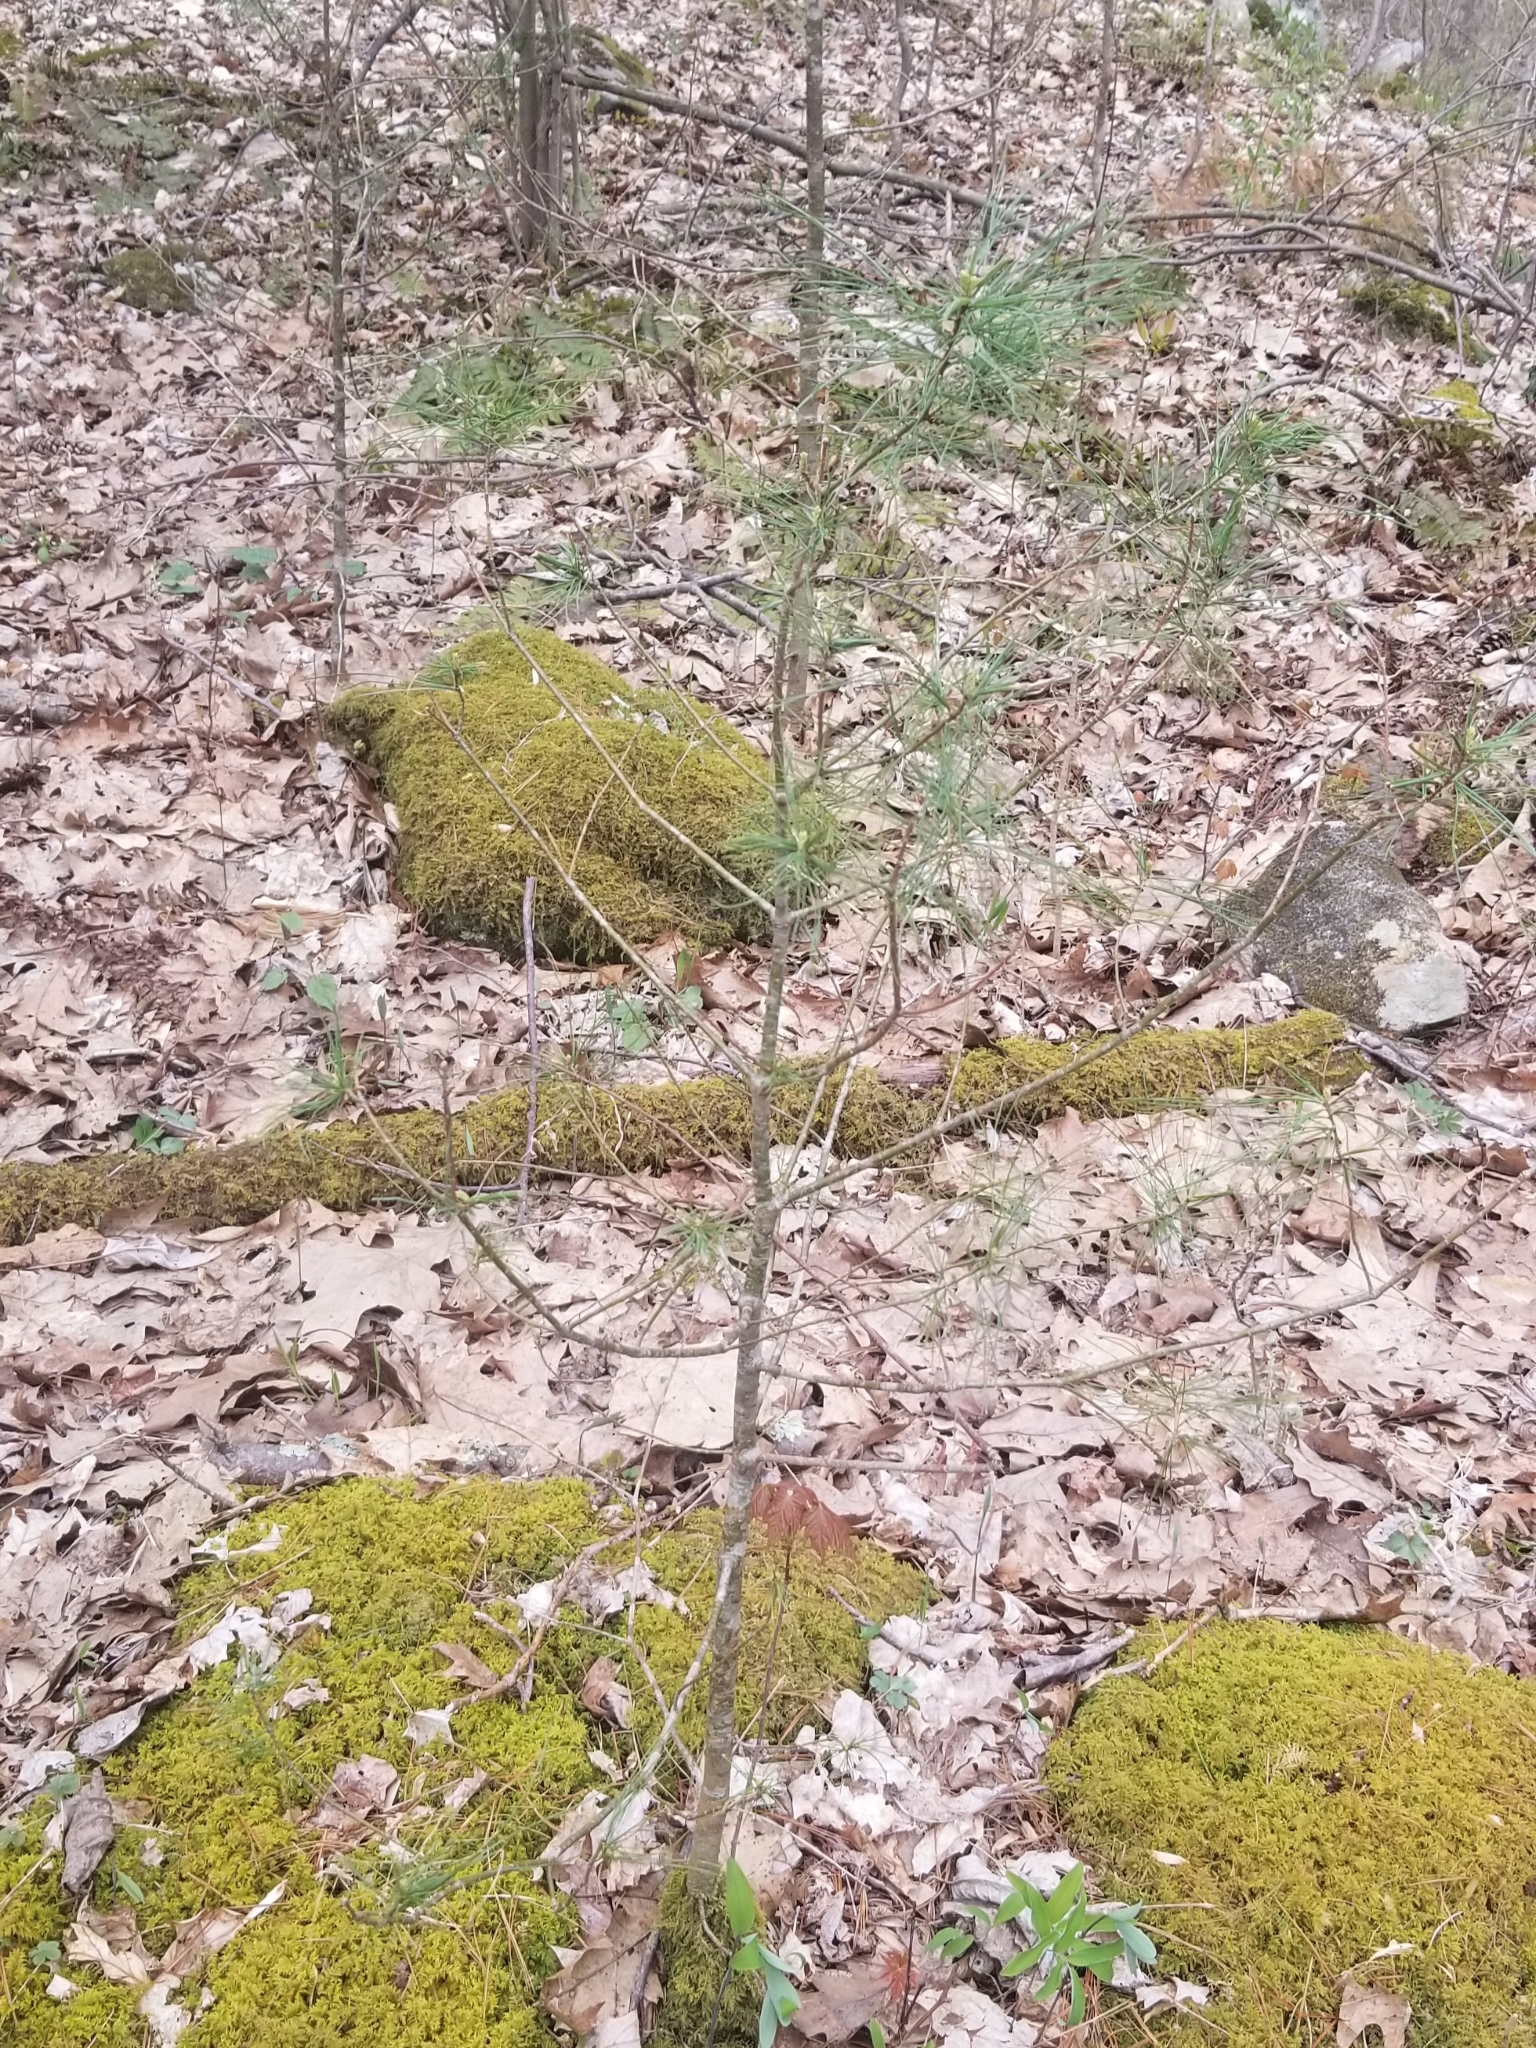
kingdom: Plantae
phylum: Tracheophyta
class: Pinopsida
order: Pinales
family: Pinaceae
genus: Pinus
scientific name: Pinus strobus
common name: Weymouth pine
